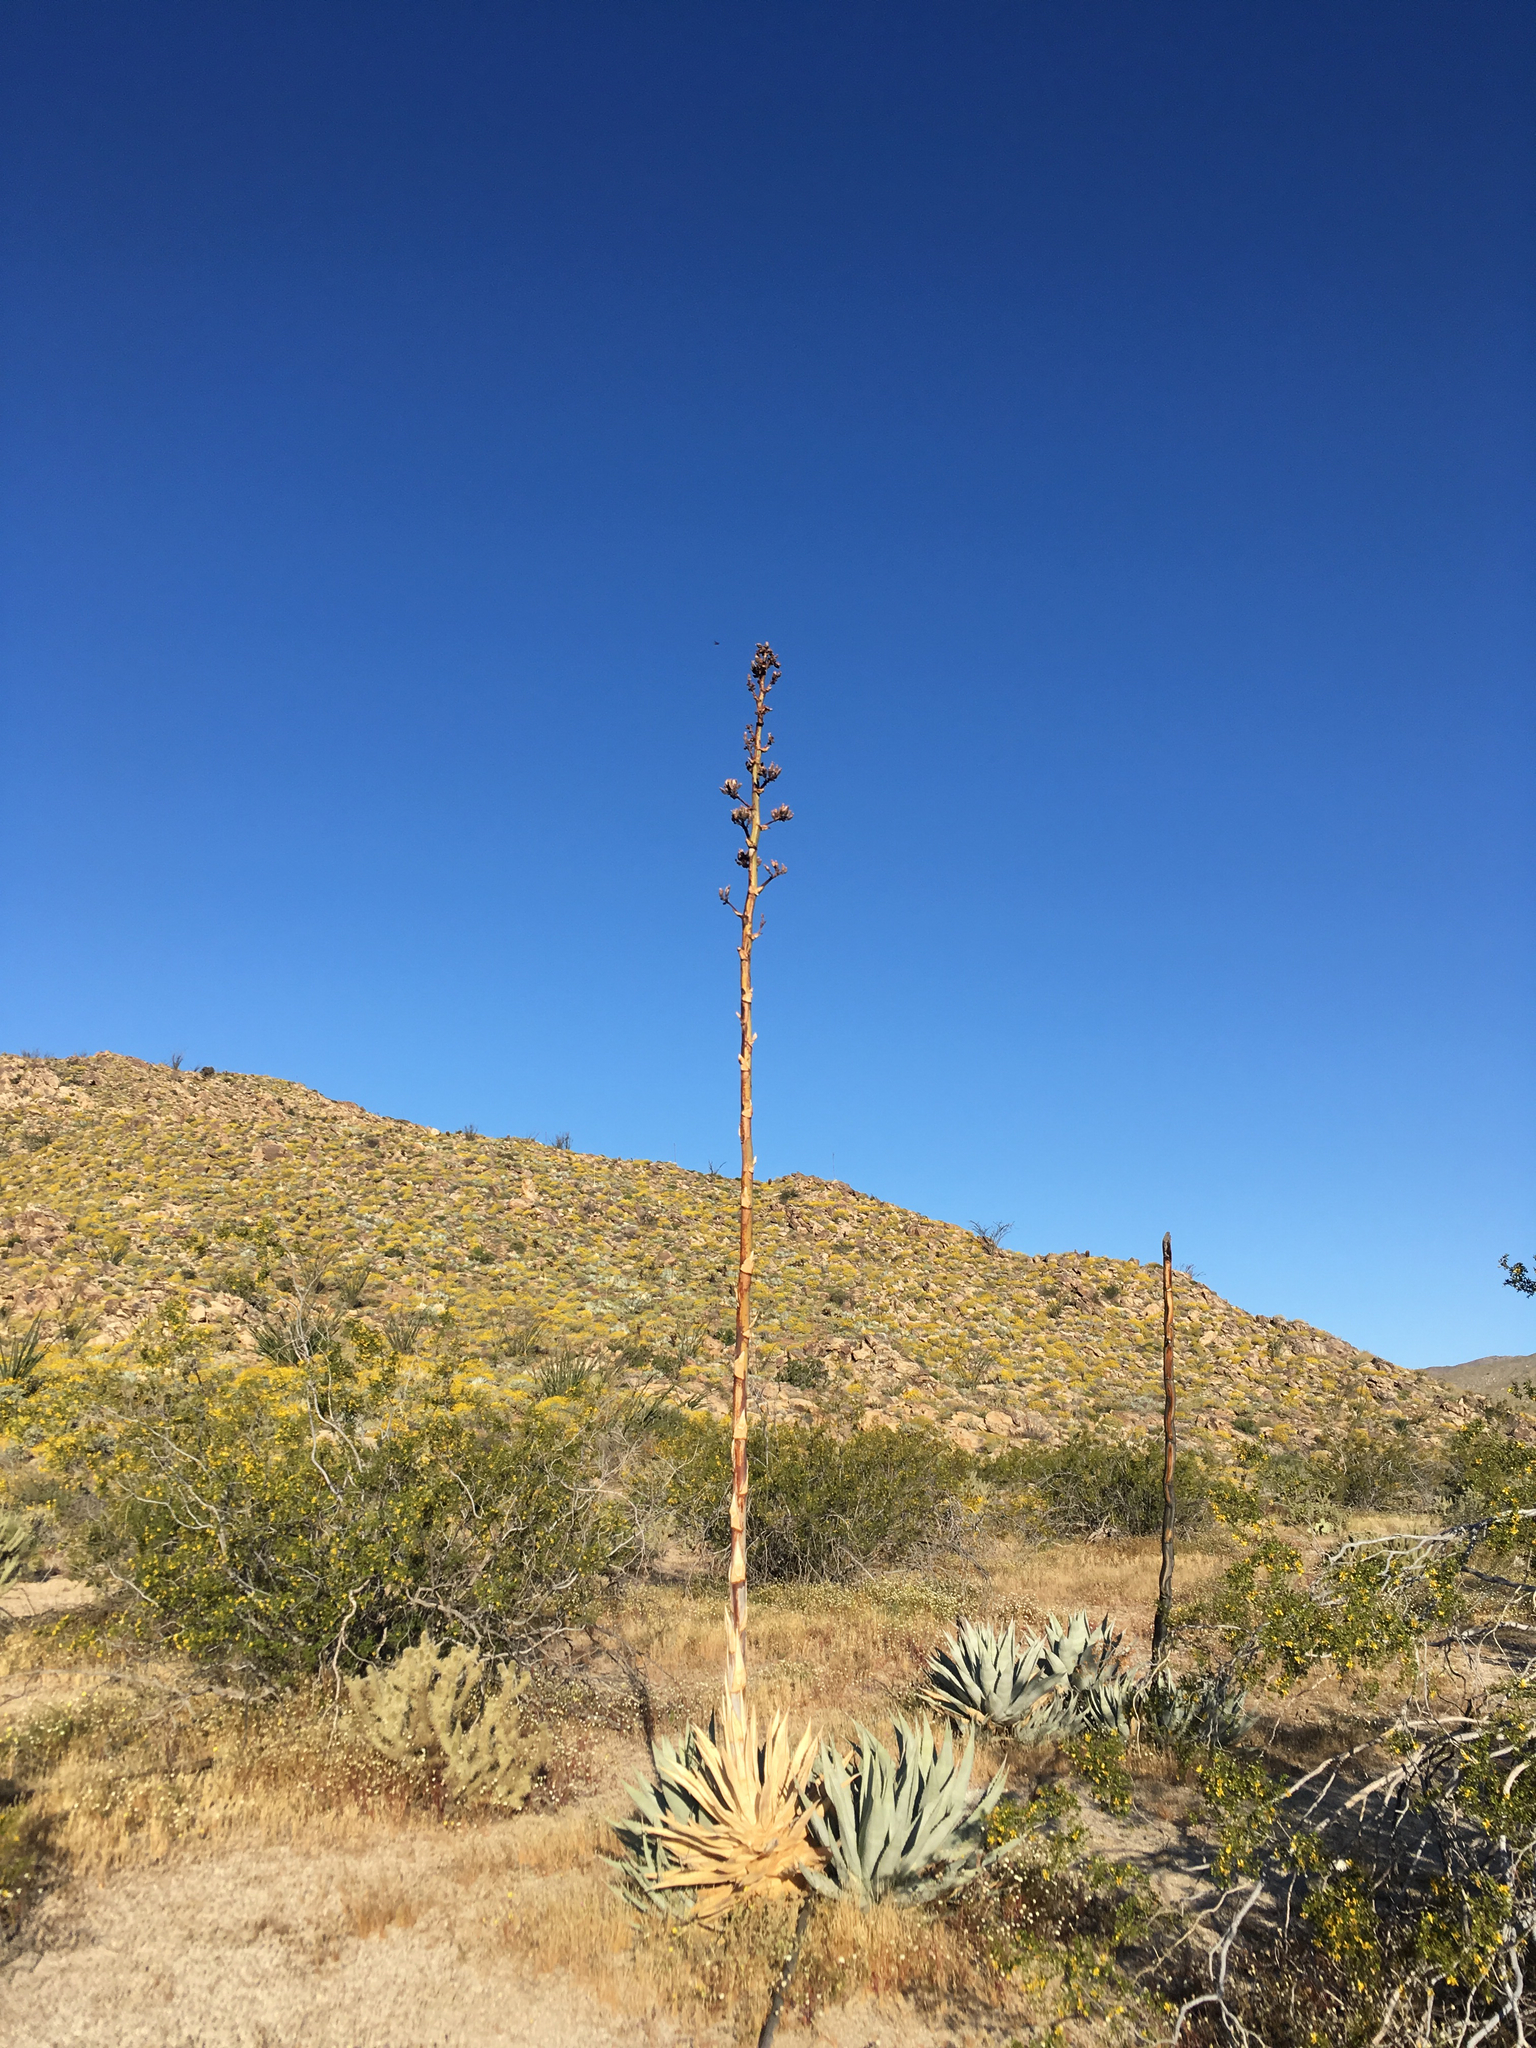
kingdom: Plantae
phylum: Tracheophyta
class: Liliopsida
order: Asparagales
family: Asparagaceae
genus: Agave
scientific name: Agave deserti
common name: Desert agave
